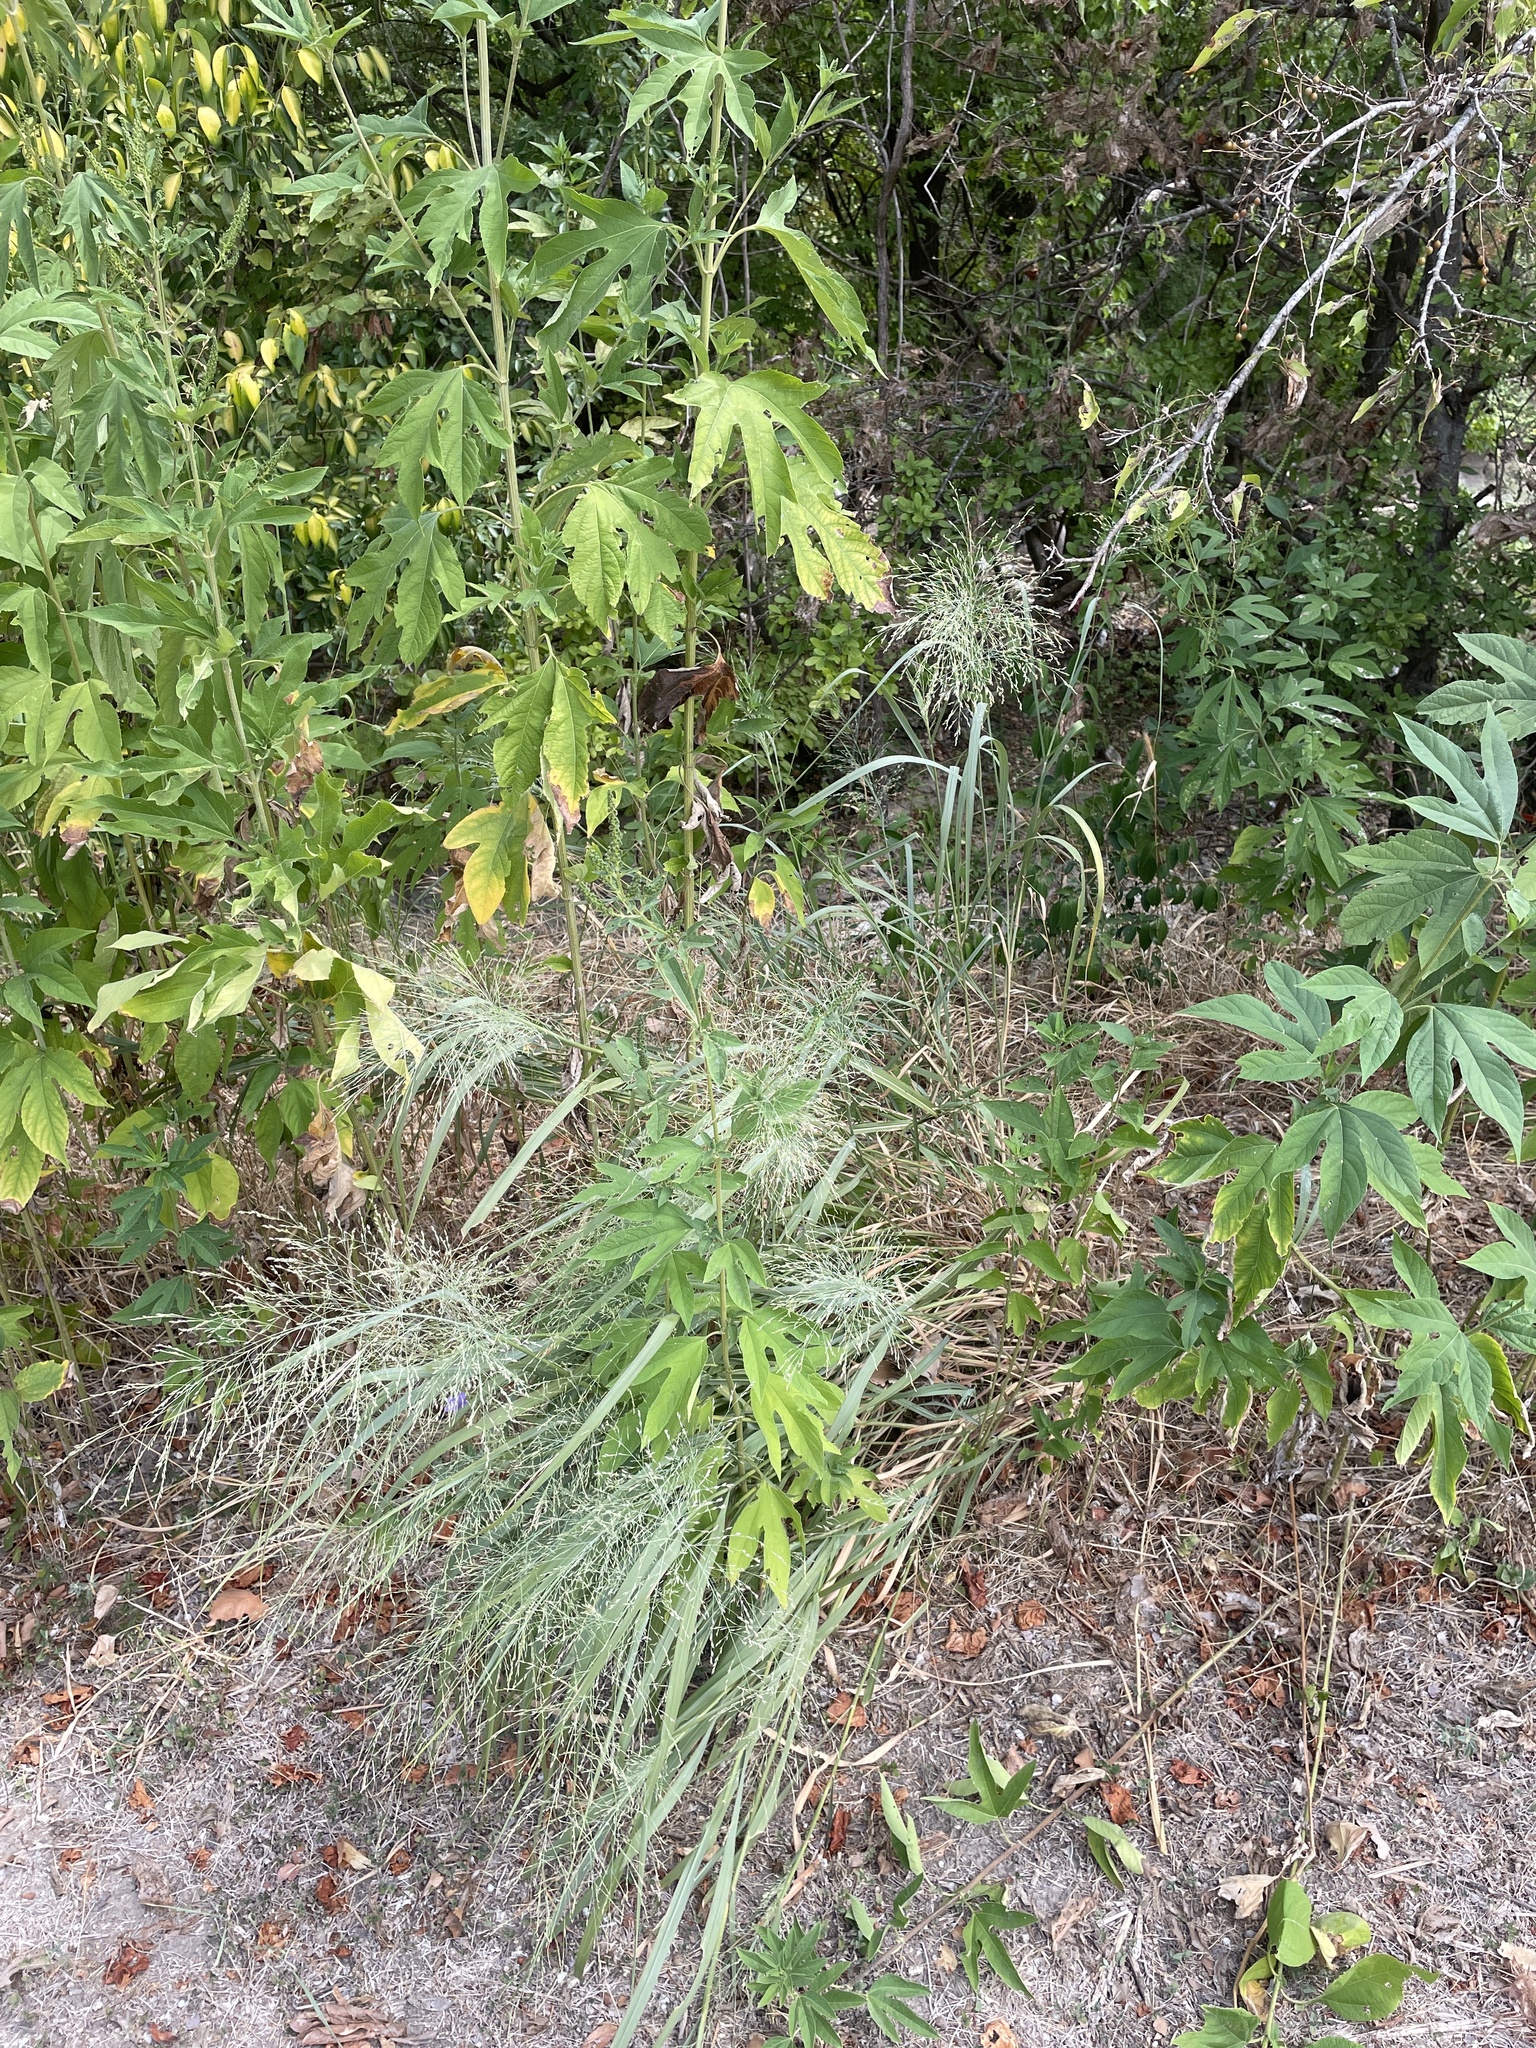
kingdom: Plantae
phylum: Tracheophyta
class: Liliopsida
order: Poales
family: Poaceae
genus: Panicum
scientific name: Panicum virgatum
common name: Switchgrass
